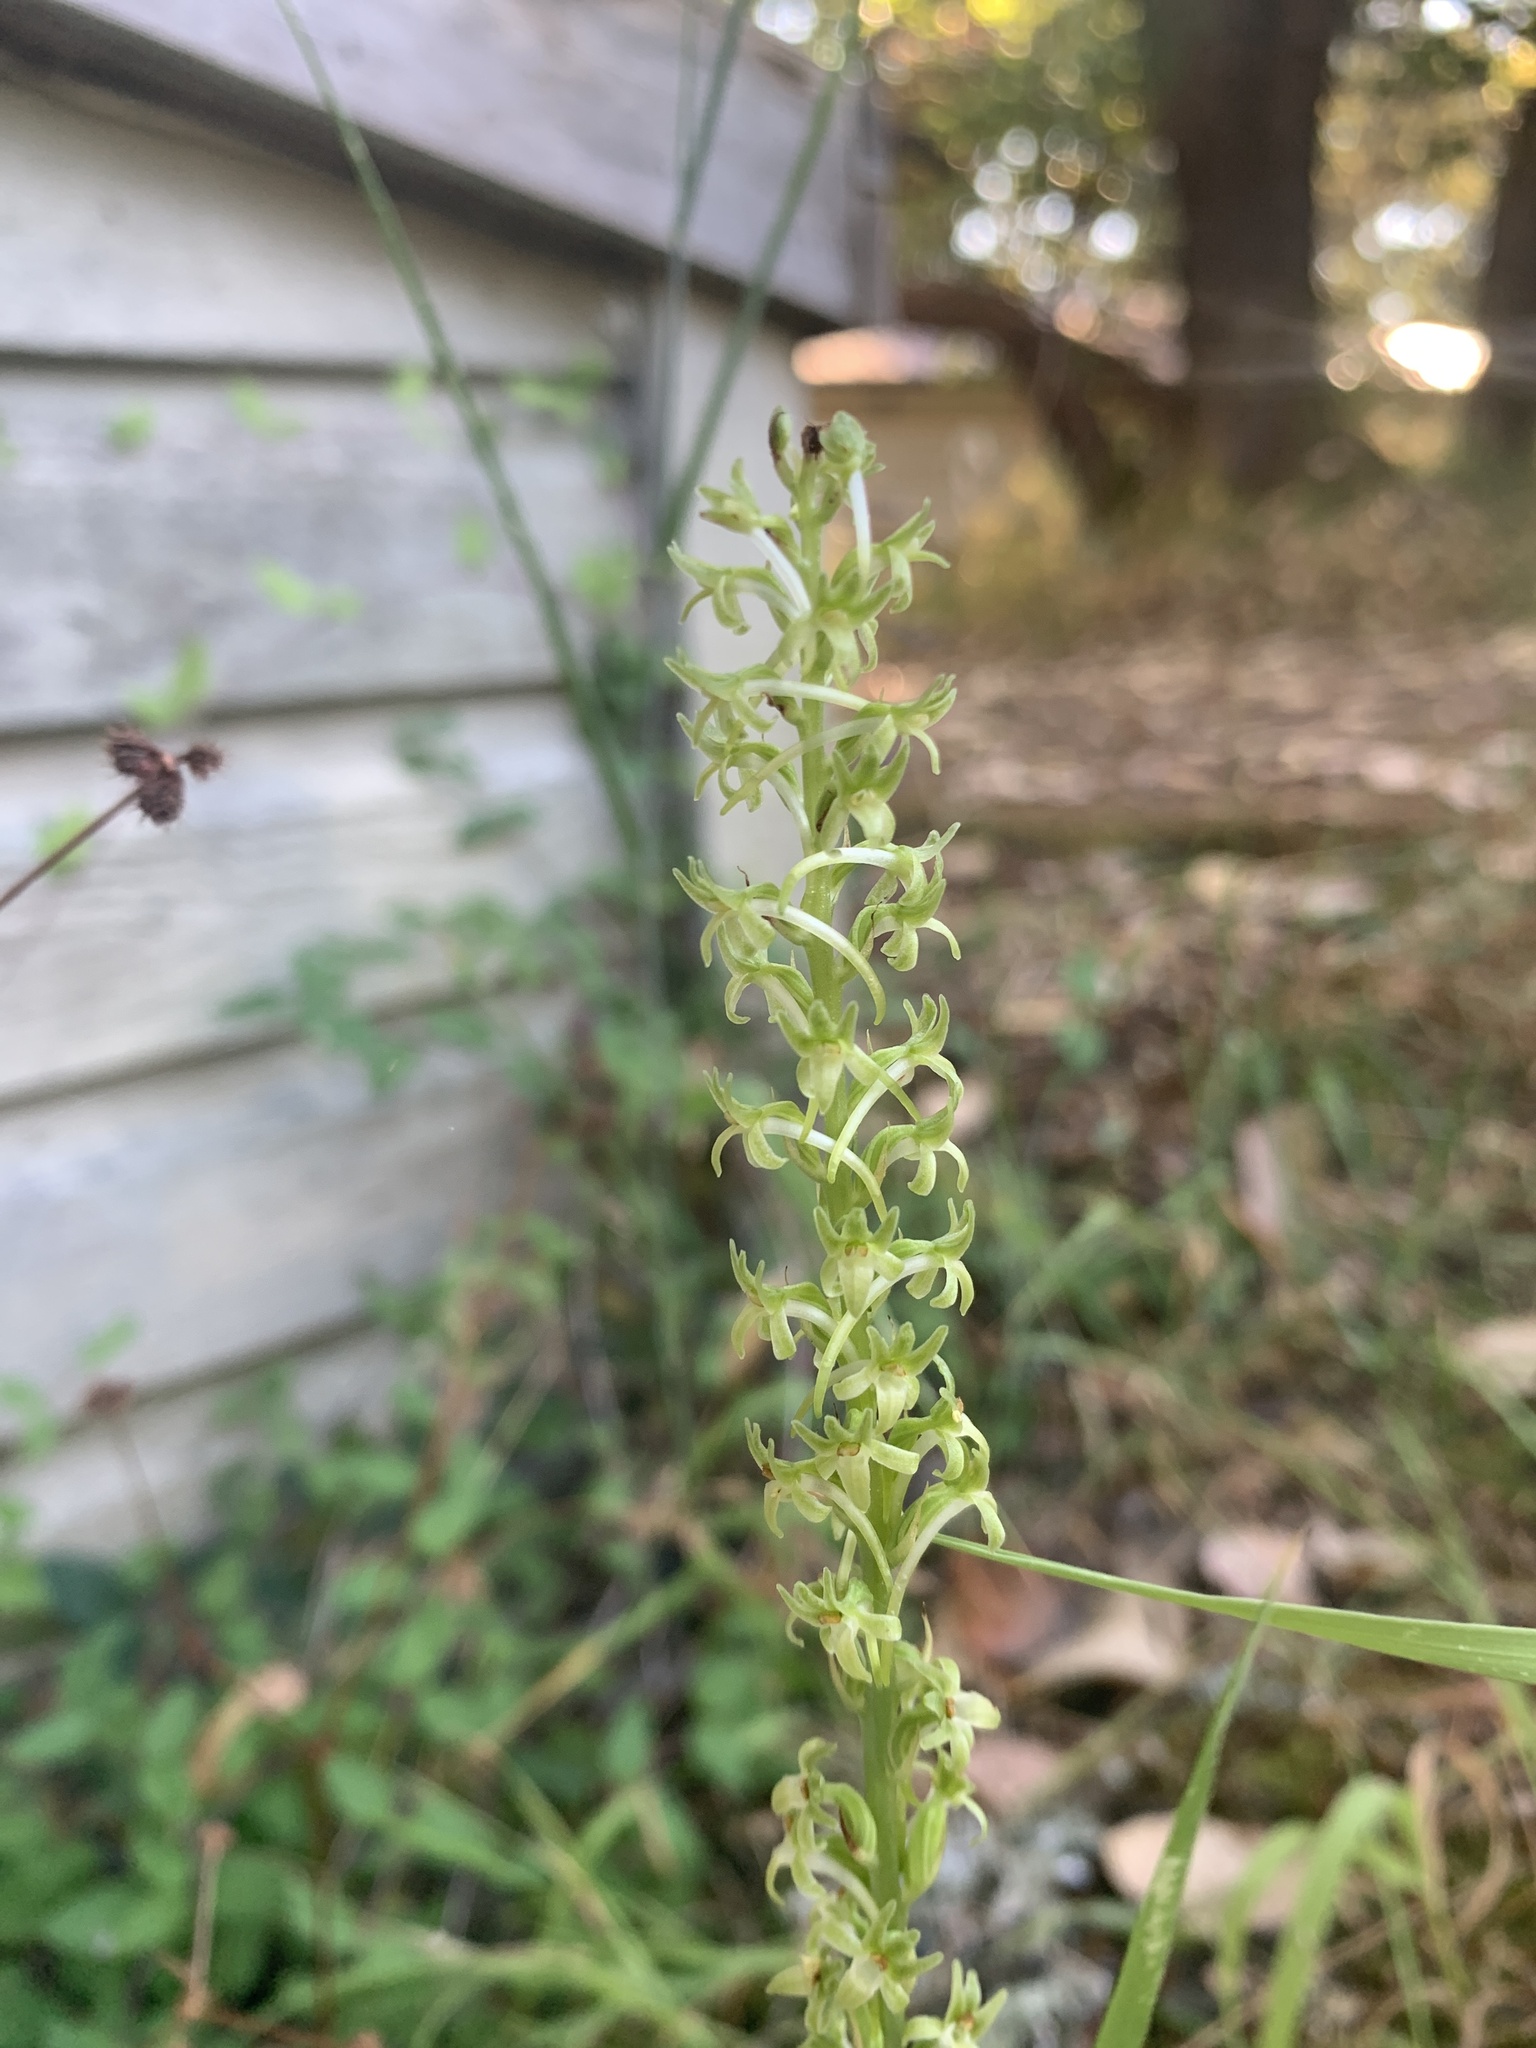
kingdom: Plantae
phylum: Tracheophyta
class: Liliopsida
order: Asparagales
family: Orchidaceae
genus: Platanthera
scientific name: Platanthera elongata
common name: Dense-flowered rein orchid
